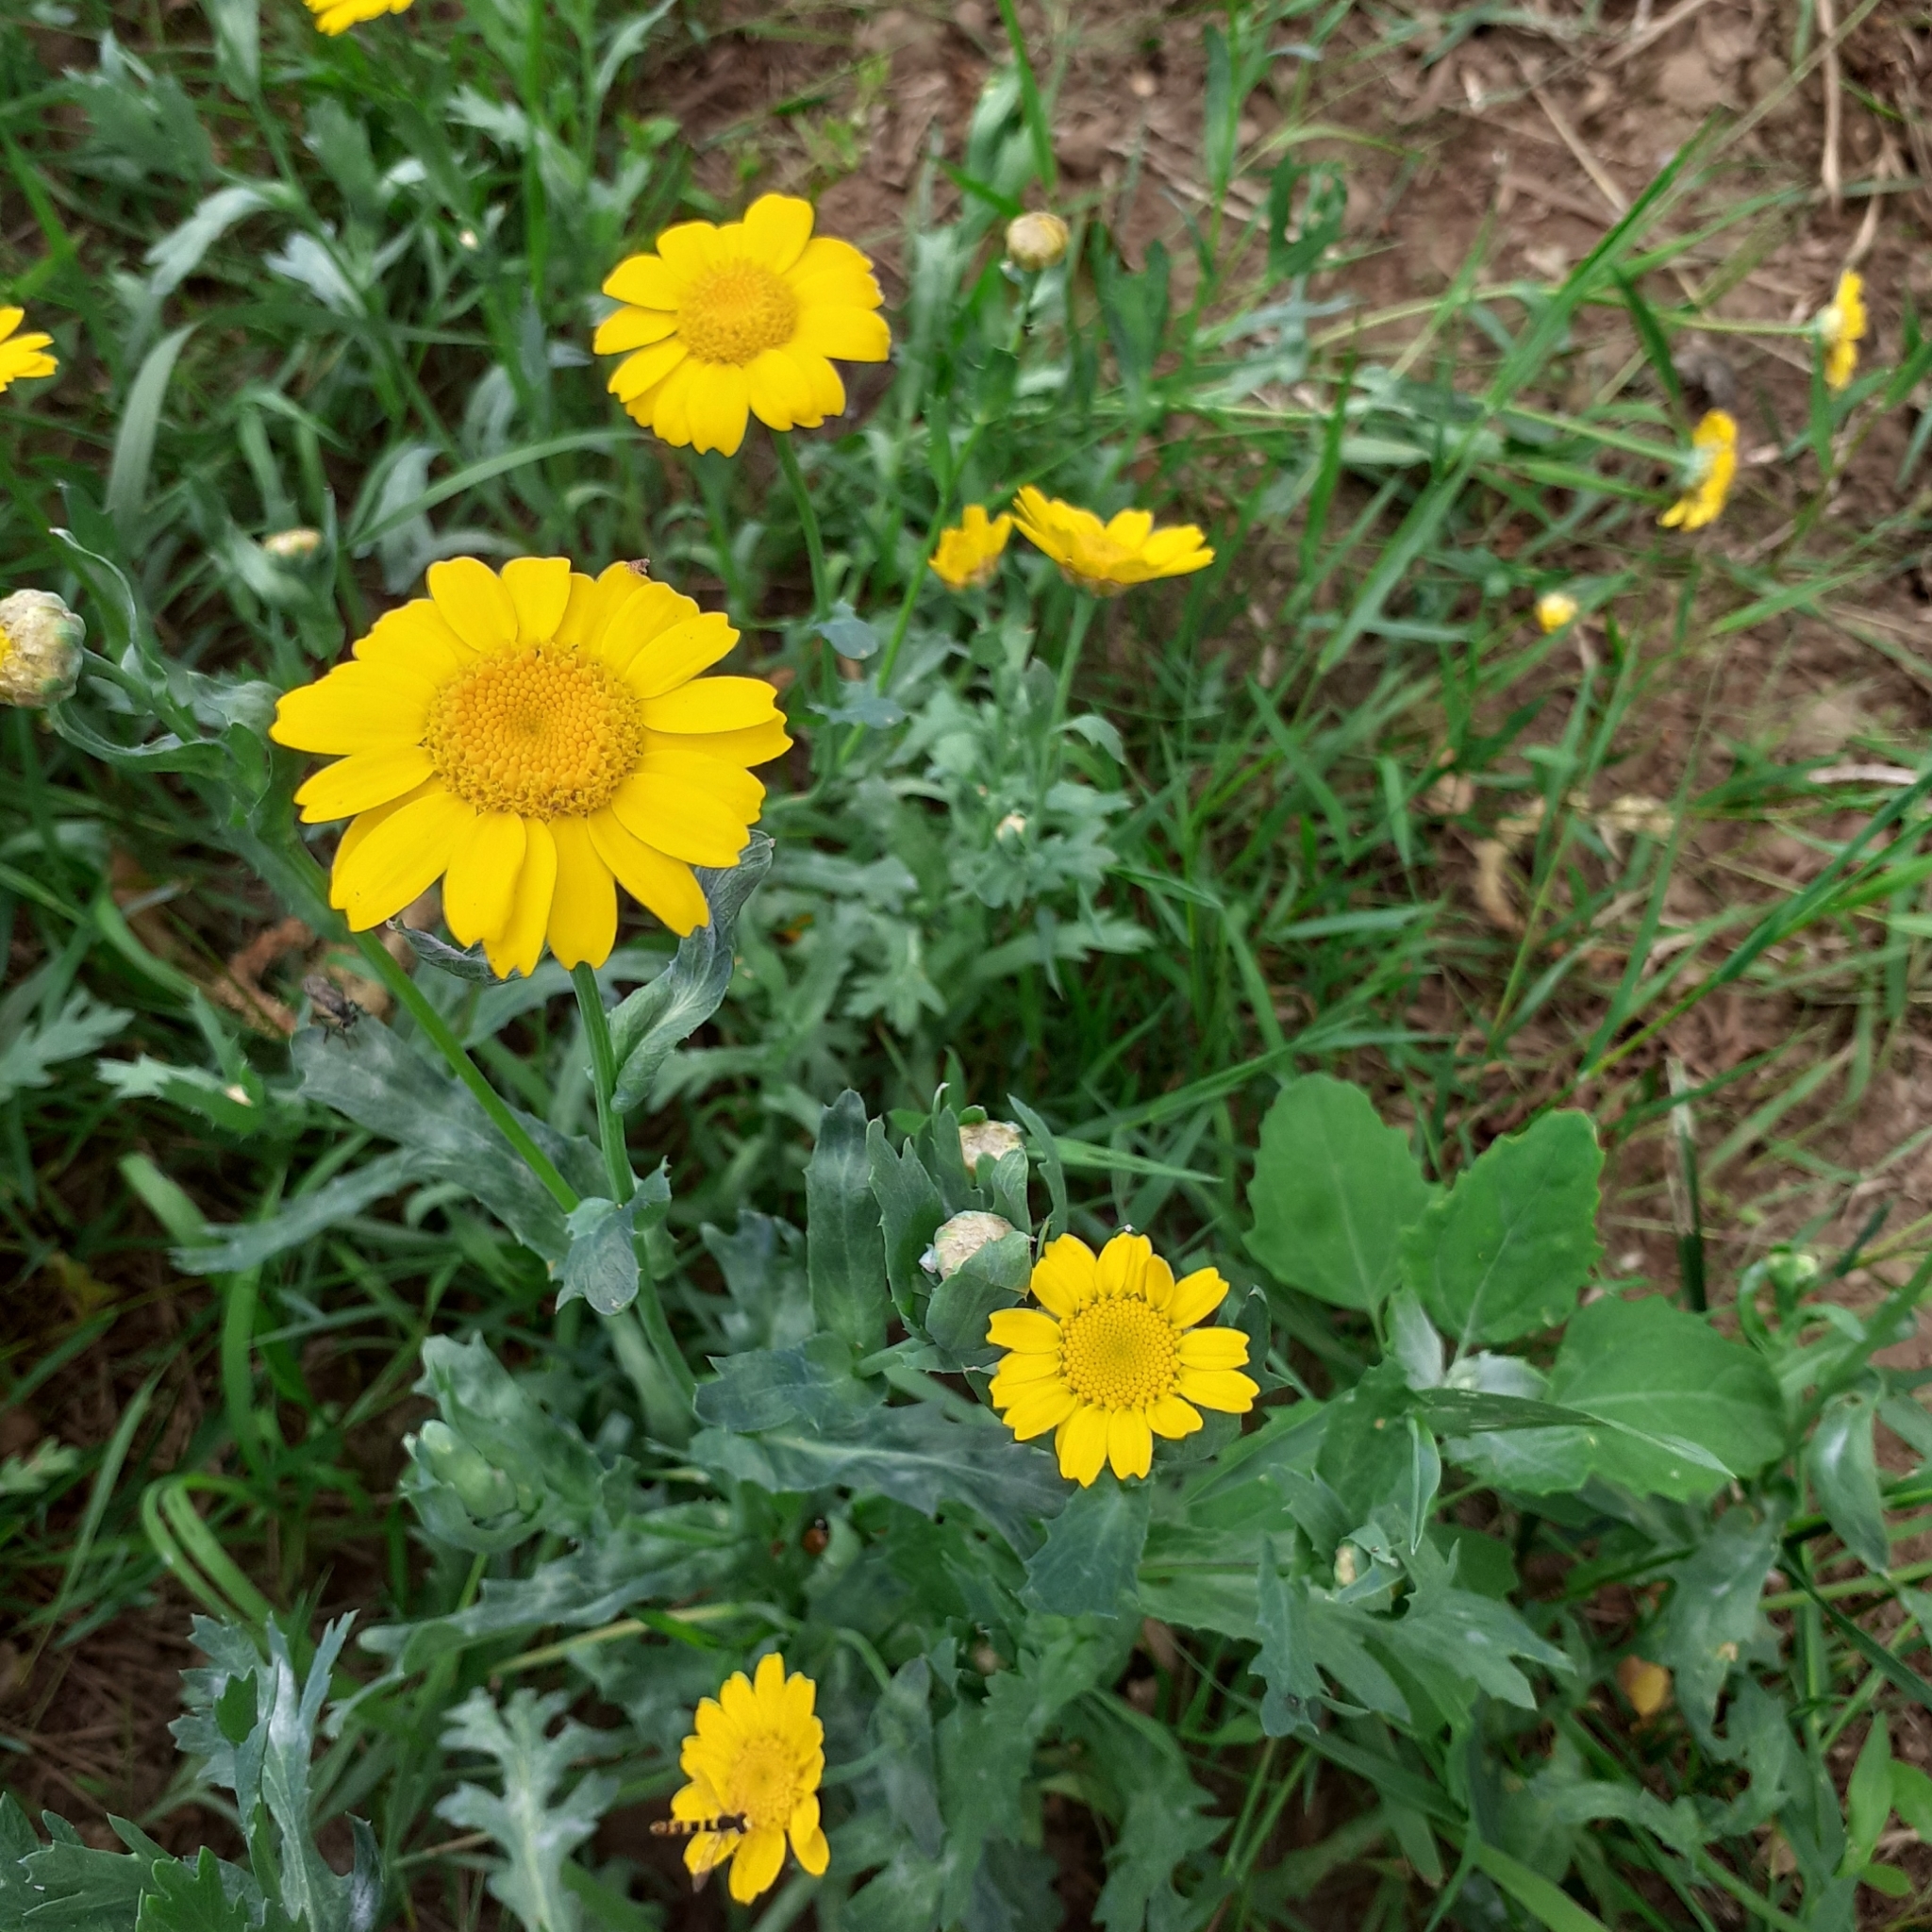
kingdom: Plantae
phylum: Tracheophyta
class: Magnoliopsida
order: Asterales
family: Asteraceae
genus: Glebionis
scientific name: Glebionis segetum
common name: Corndaisy
